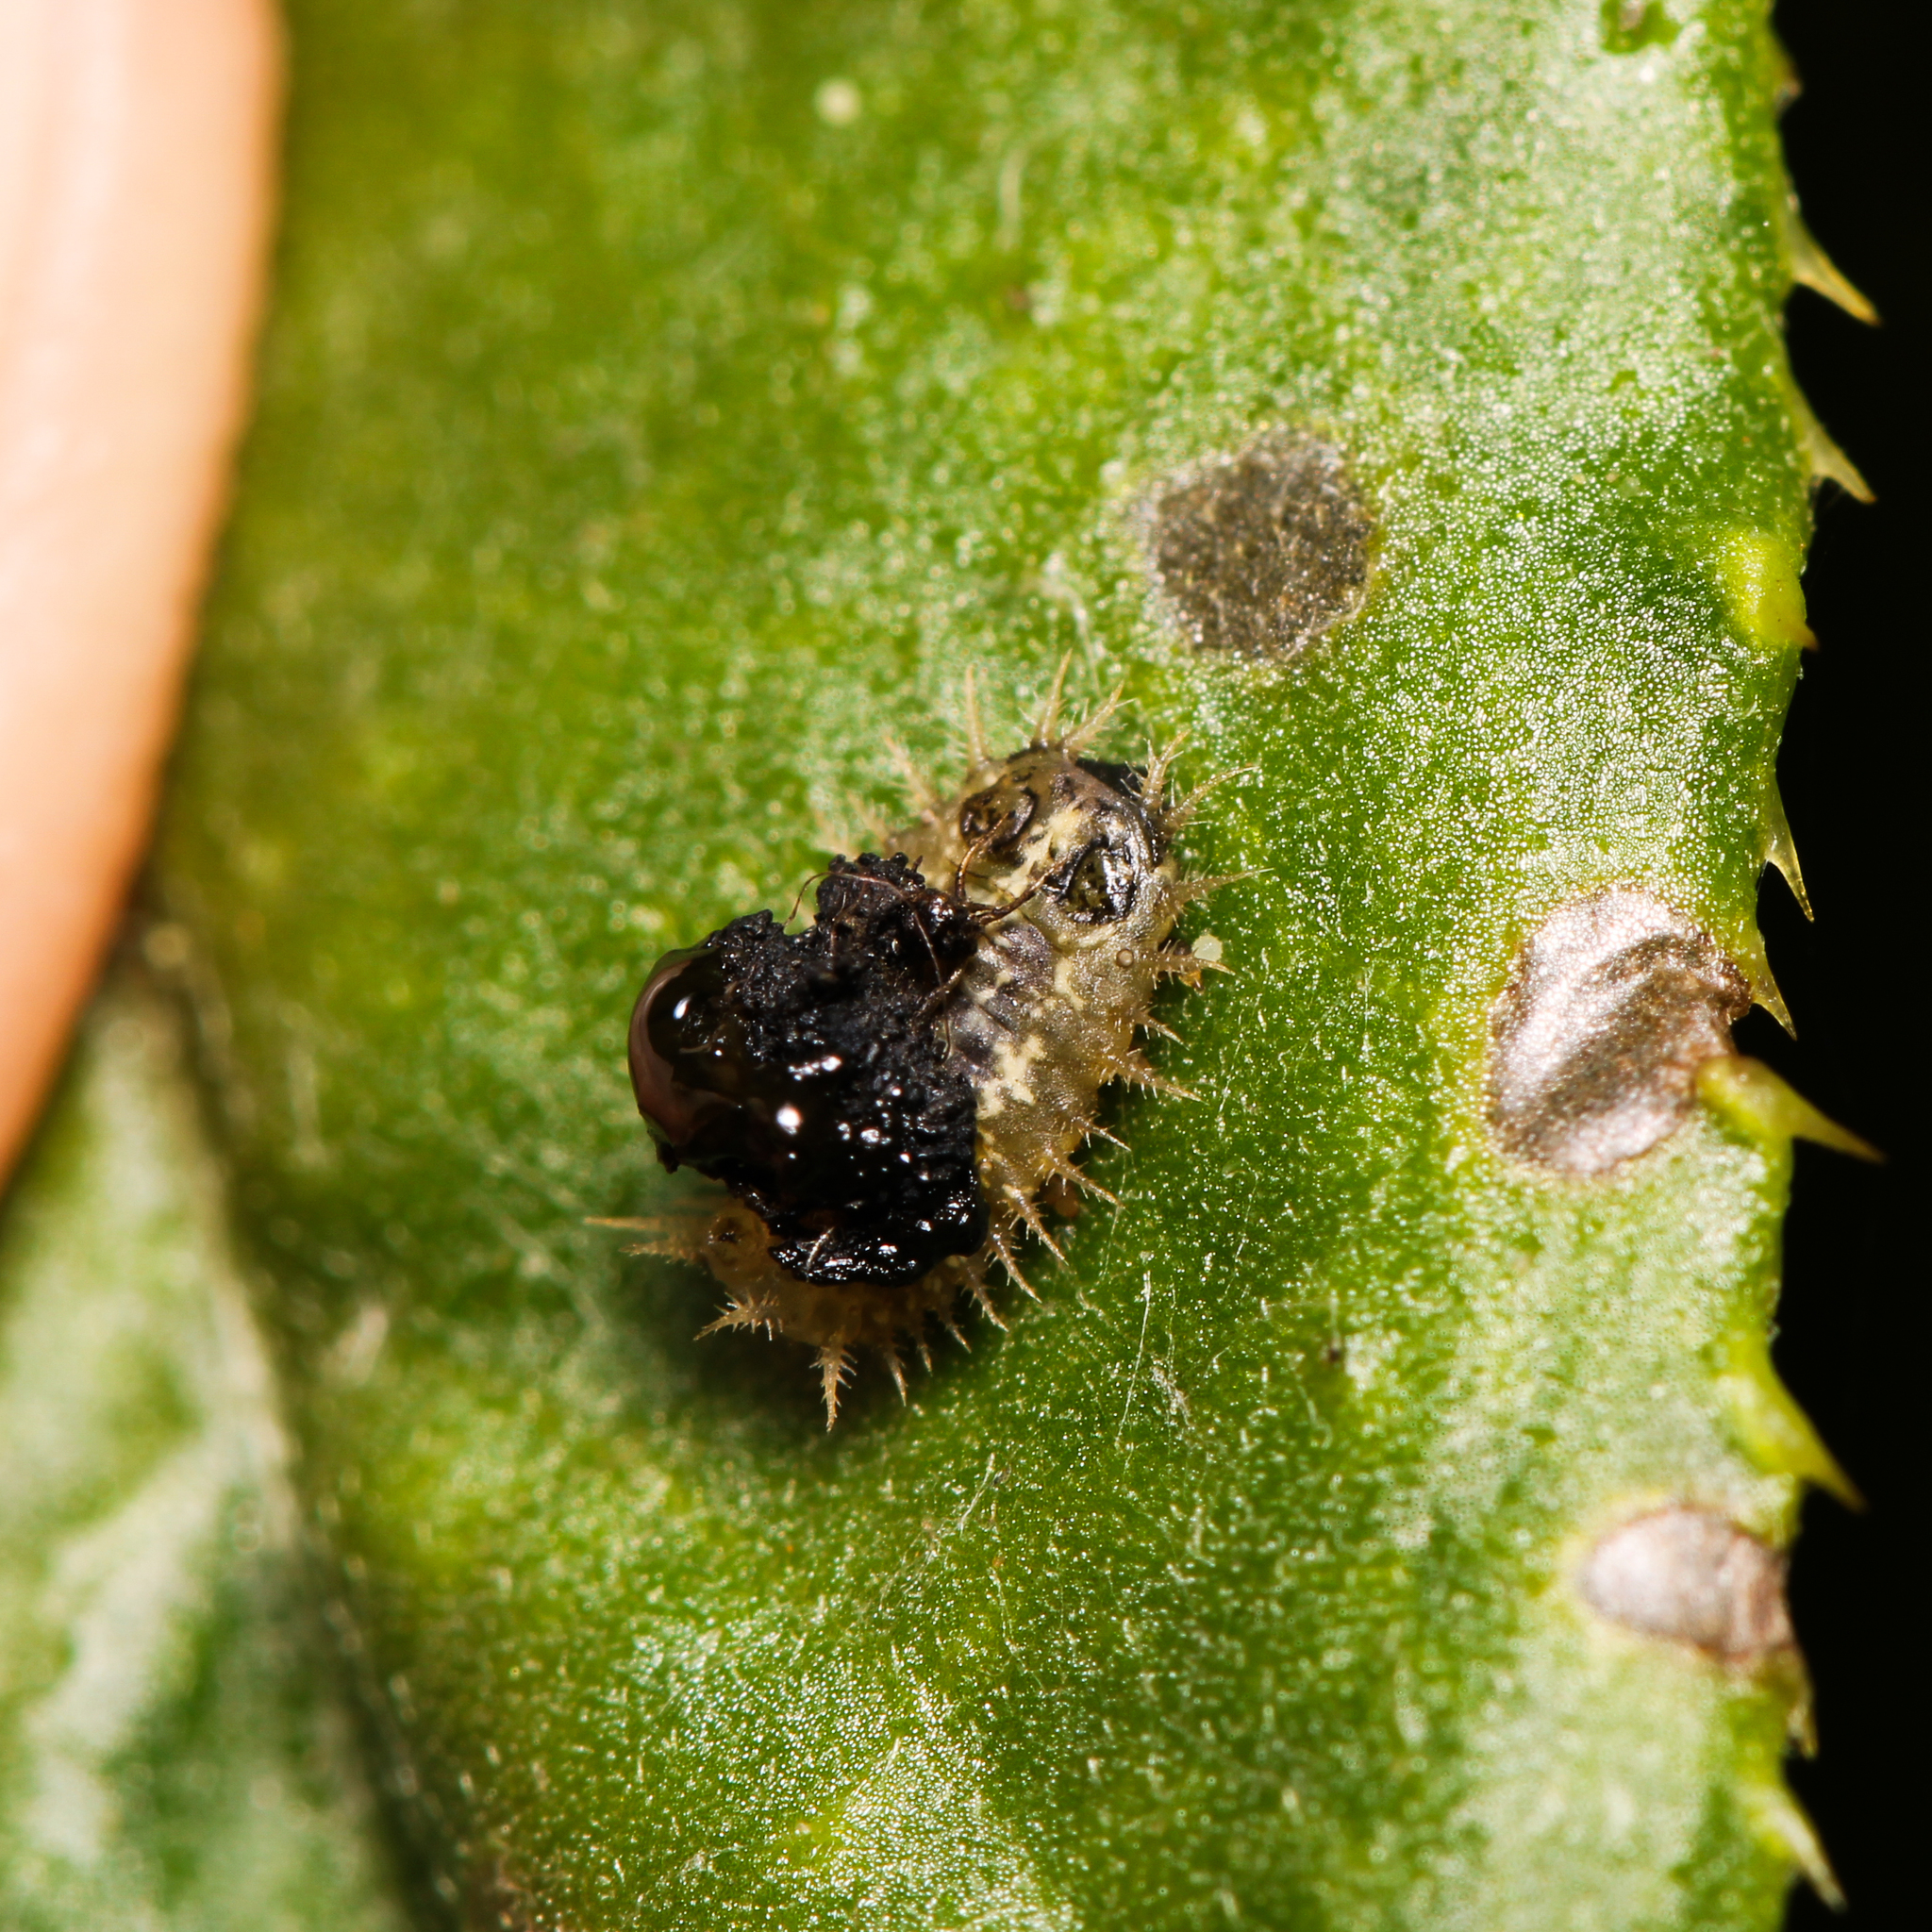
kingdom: Animalia
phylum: Arthropoda
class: Insecta
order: Coleoptera
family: Chrysomelidae
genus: Cassida
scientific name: Cassida rubiginosa
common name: Thistle tortoise beetle
